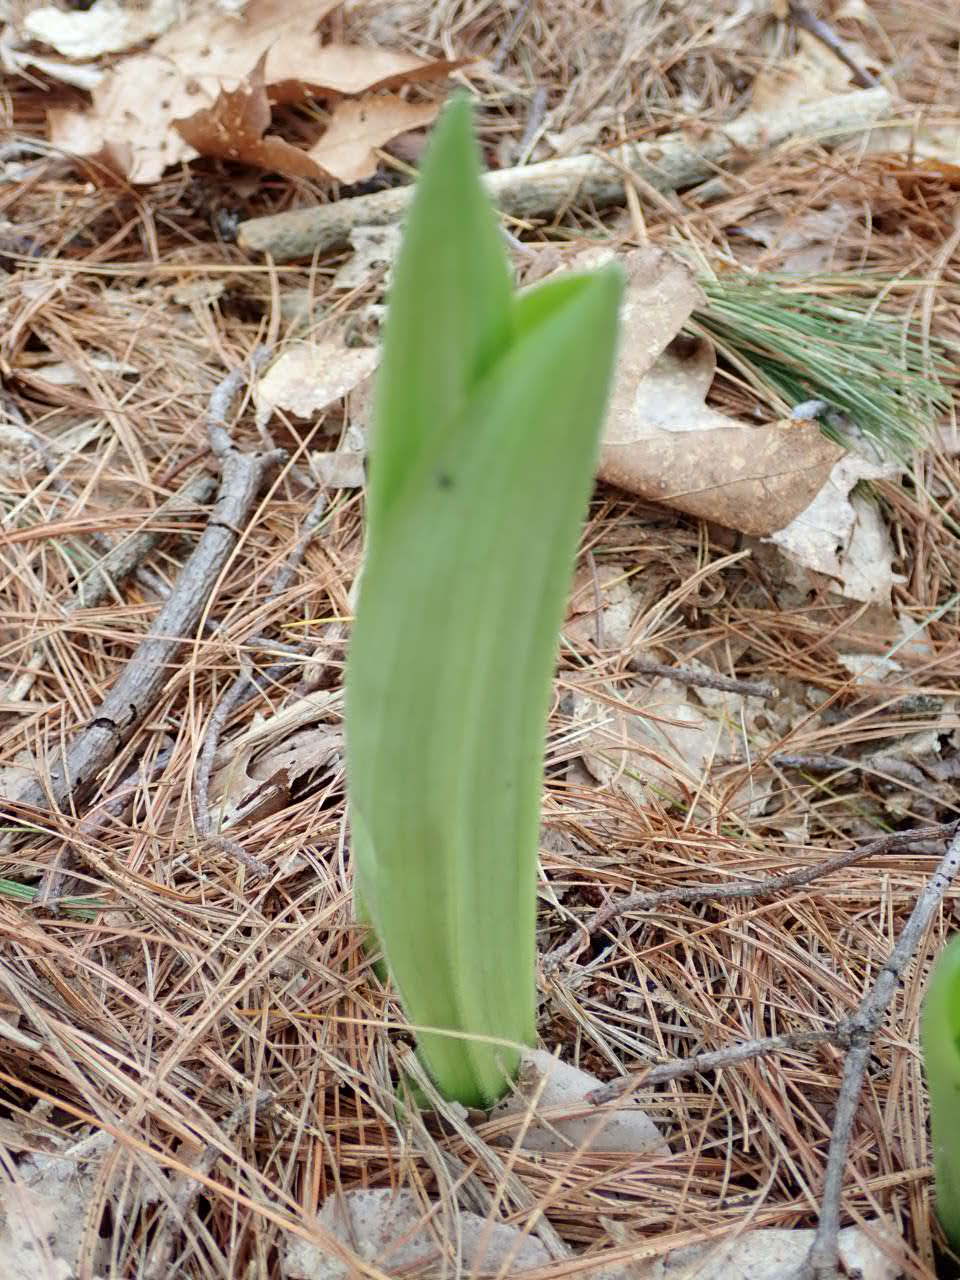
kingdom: Plantae
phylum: Tracheophyta
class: Liliopsida
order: Asparagales
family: Orchidaceae
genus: Cypripedium
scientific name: Cypripedium acaule
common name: Pink lady's-slipper
